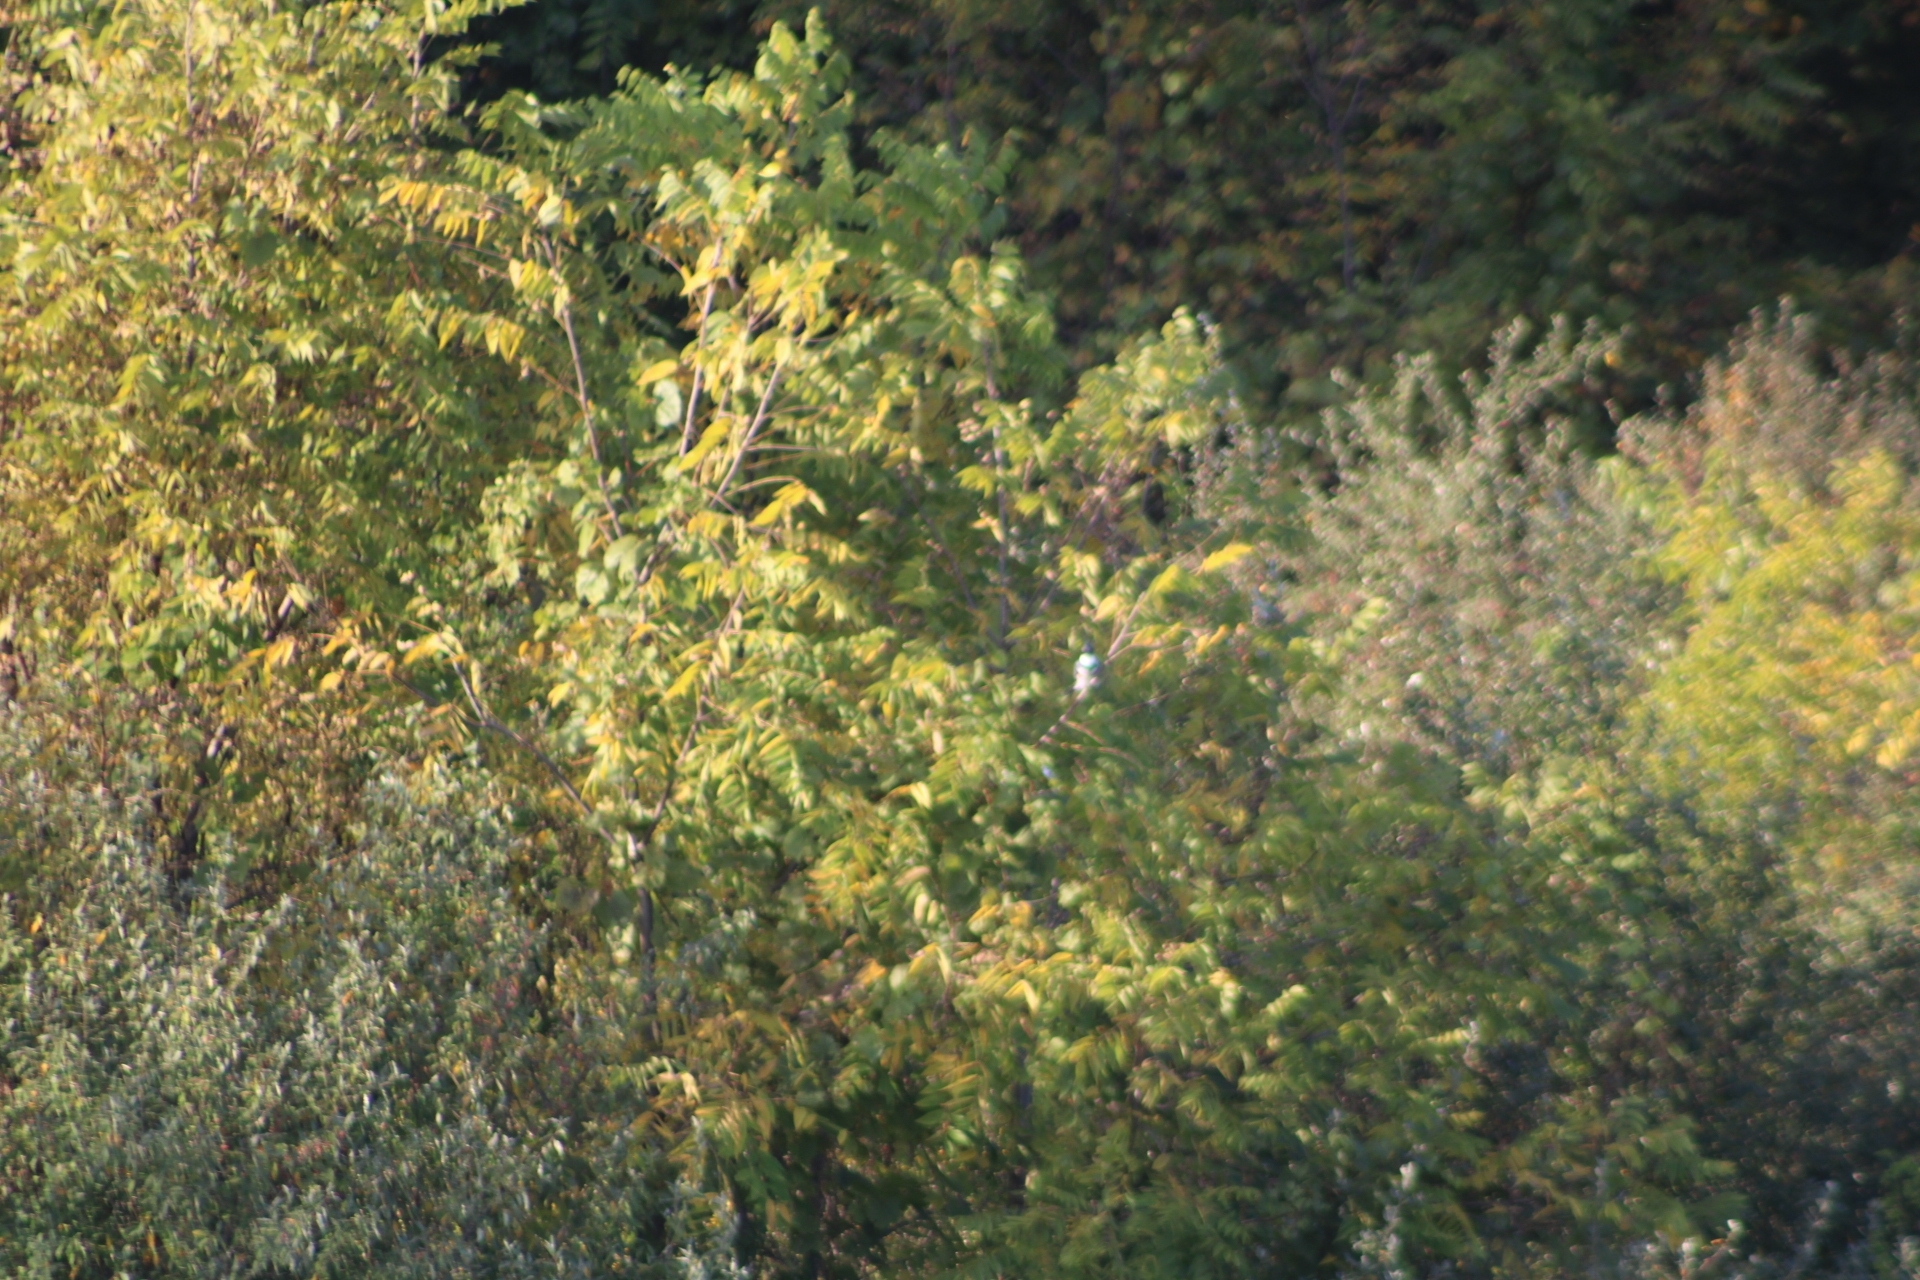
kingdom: Animalia
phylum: Chordata
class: Aves
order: Coraciiformes
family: Alcedinidae
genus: Megaceryle
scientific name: Megaceryle alcyon
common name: Belted kingfisher
